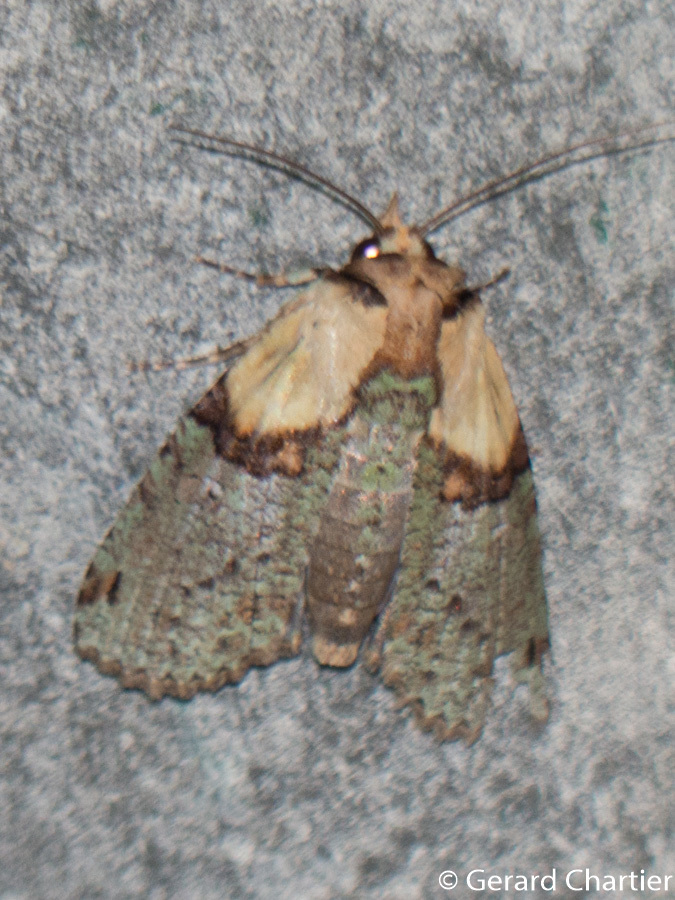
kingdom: Animalia
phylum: Arthropoda
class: Insecta
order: Lepidoptera
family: Euteliidae
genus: Stictoptera
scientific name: Stictoptera columba
